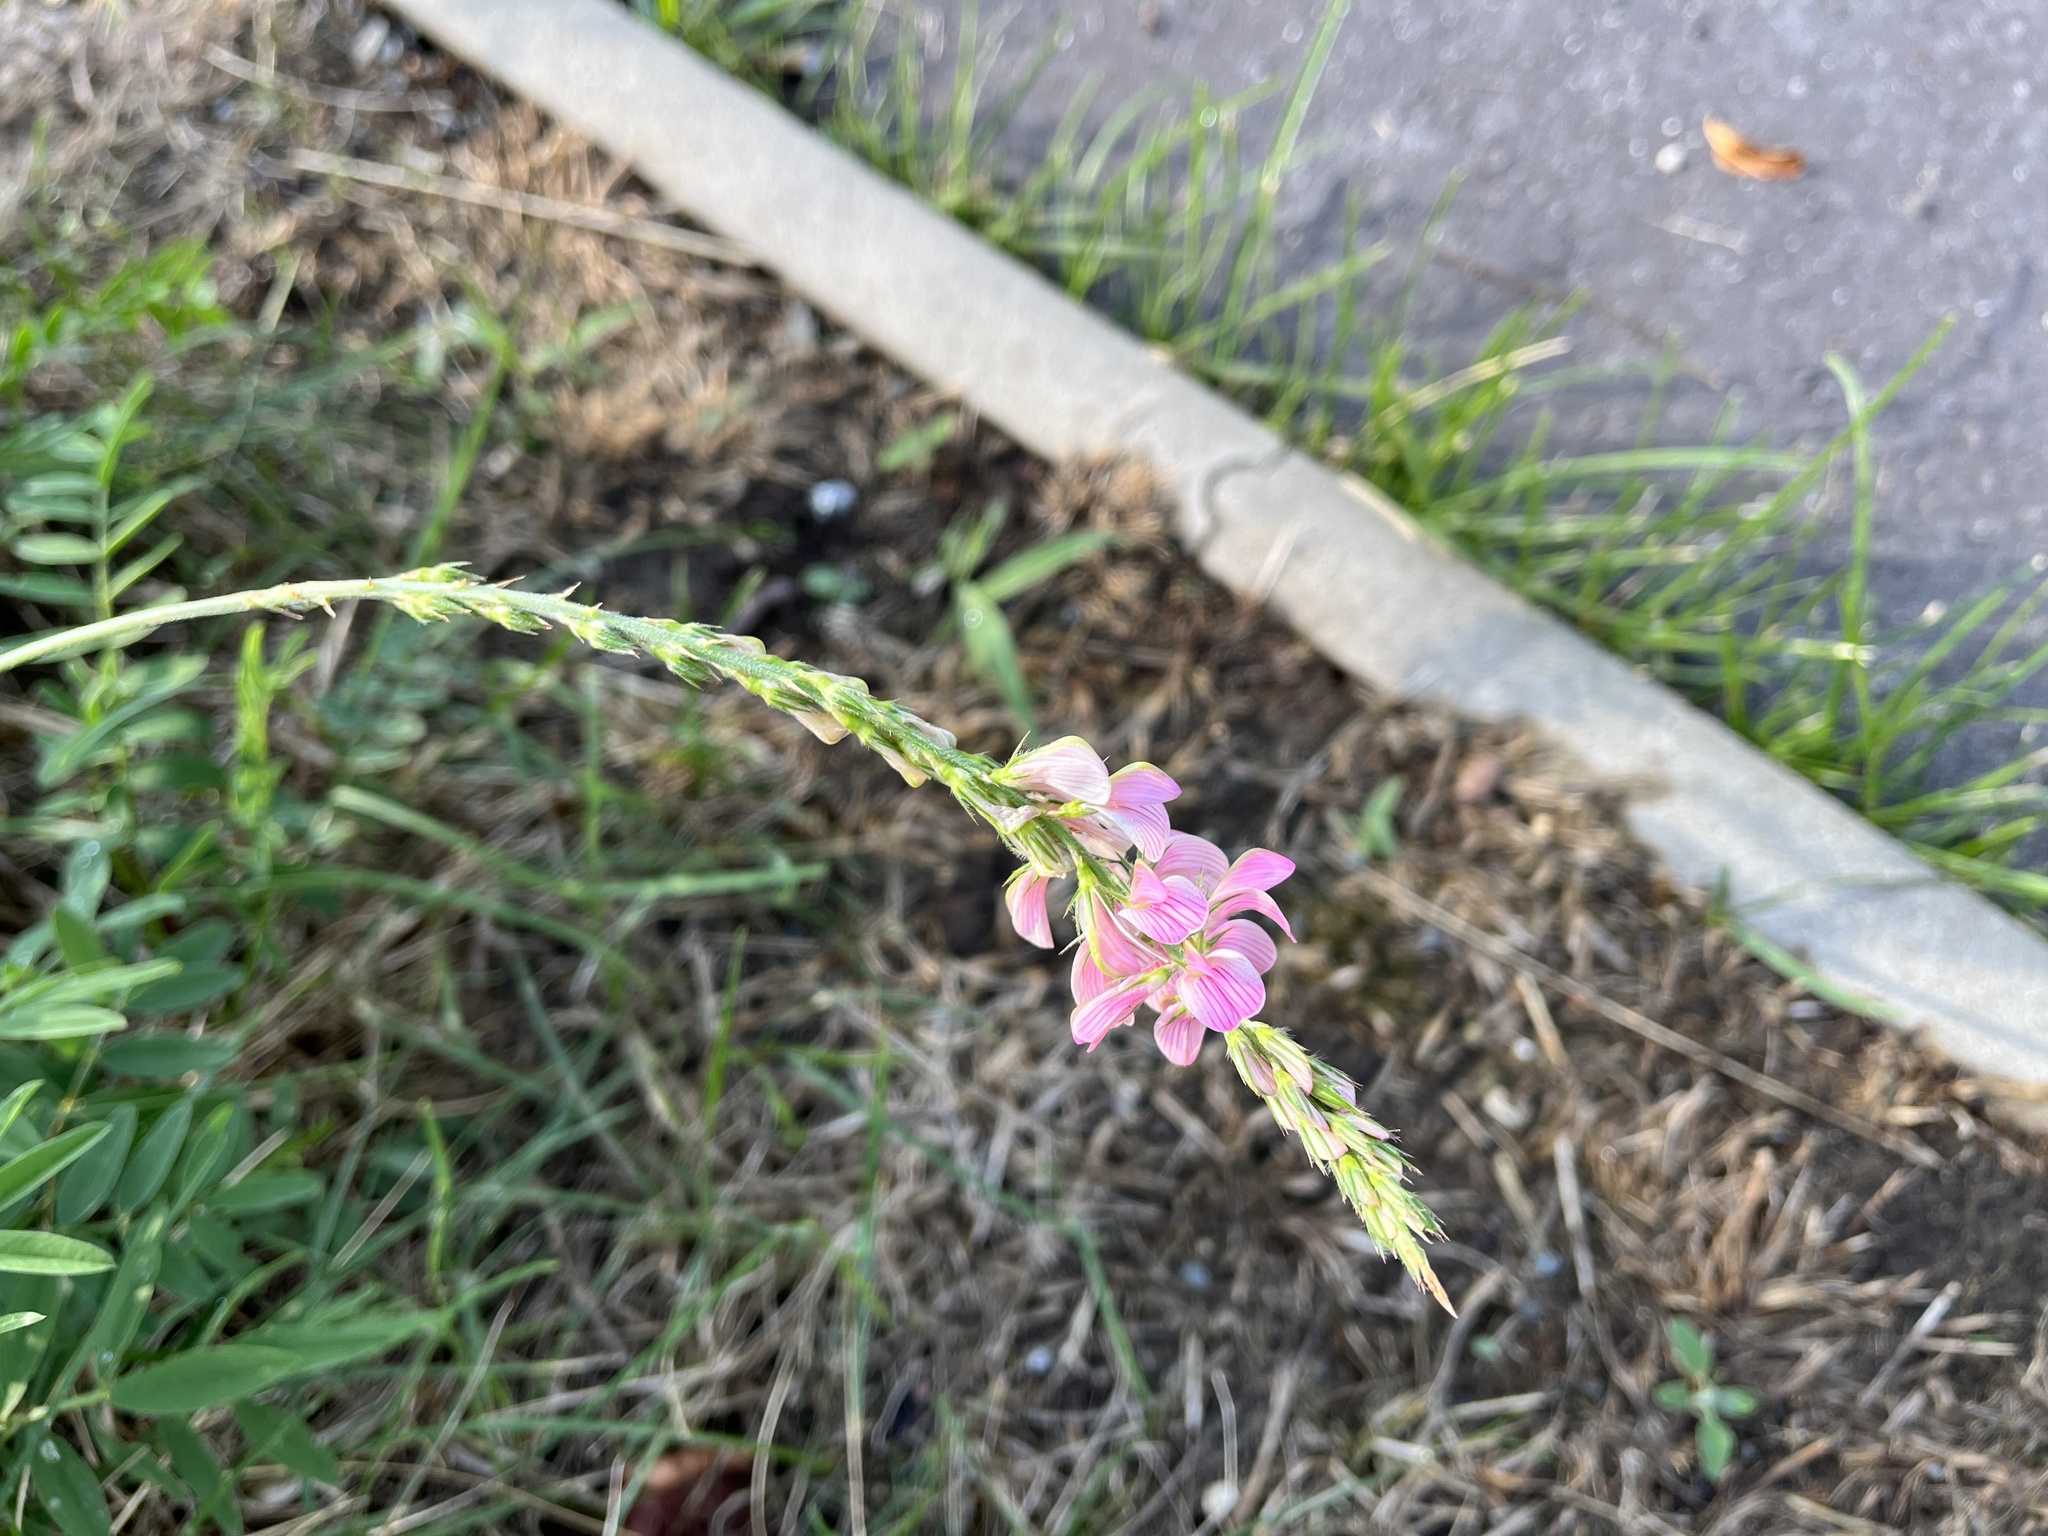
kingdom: Plantae
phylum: Tracheophyta
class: Magnoliopsida
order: Fabales
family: Fabaceae
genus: Onobrychis
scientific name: Onobrychis viciifolia
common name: Sainfoin
